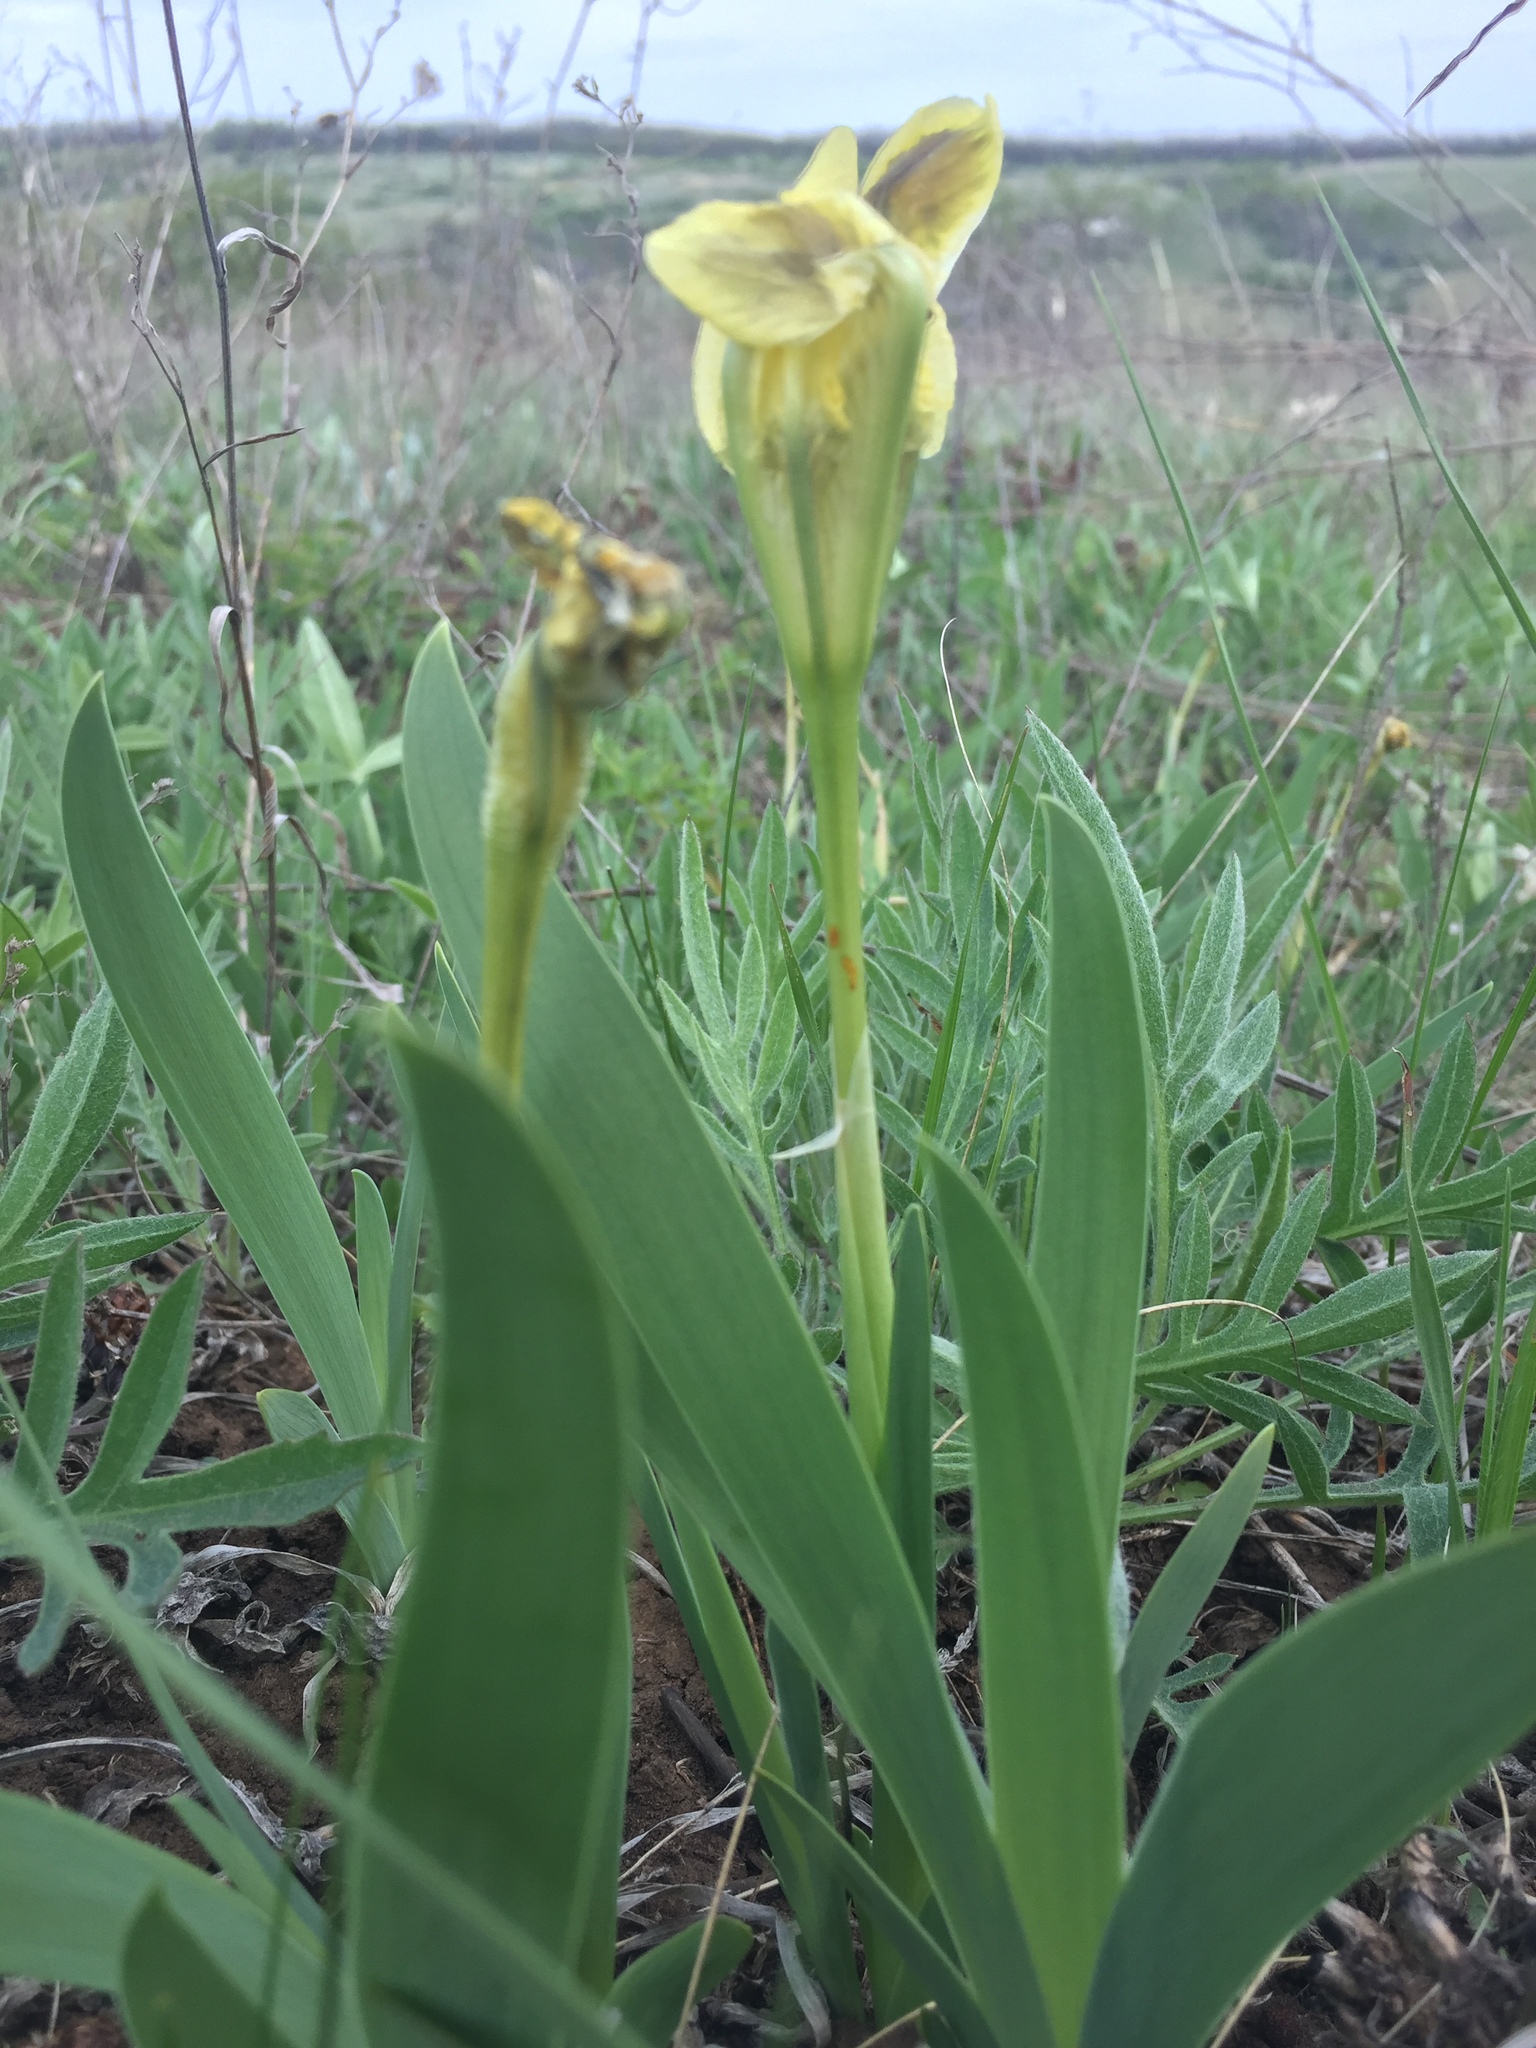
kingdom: Plantae
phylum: Tracheophyta
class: Liliopsida
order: Asparagales
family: Iridaceae
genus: Iris
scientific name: Iris pumila
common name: Dwarf iris
